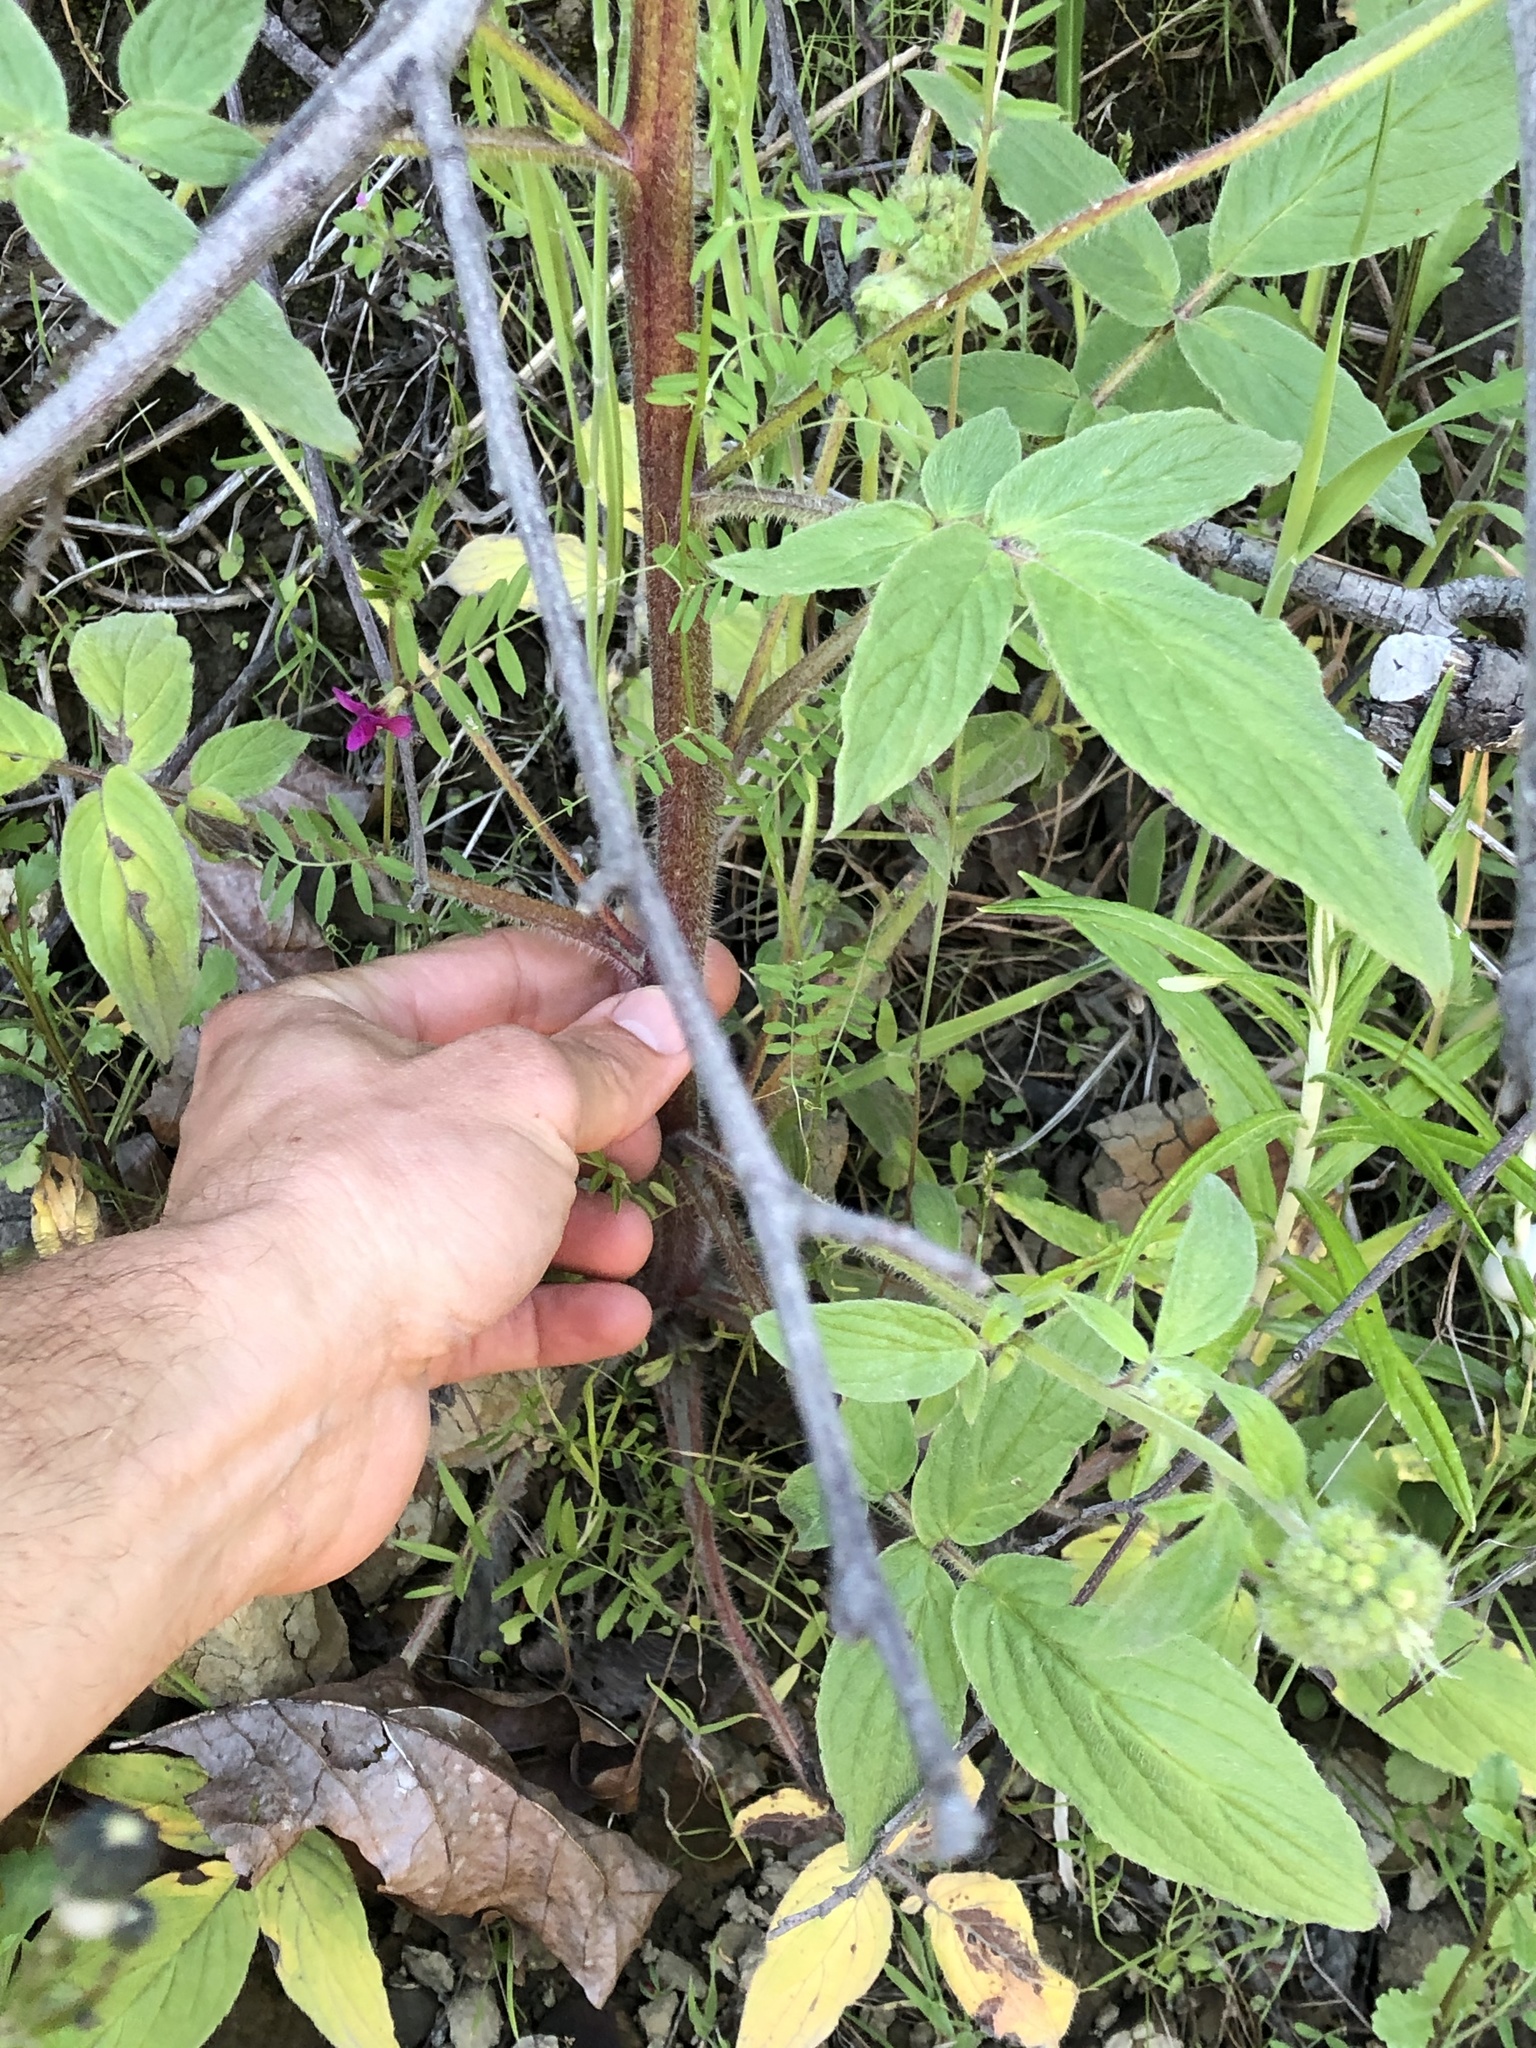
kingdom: Plantae
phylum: Tracheophyta
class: Magnoliopsida
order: Boraginales
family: Hydrophyllaceae
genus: Phacelia
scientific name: Phacelia nemoralis
